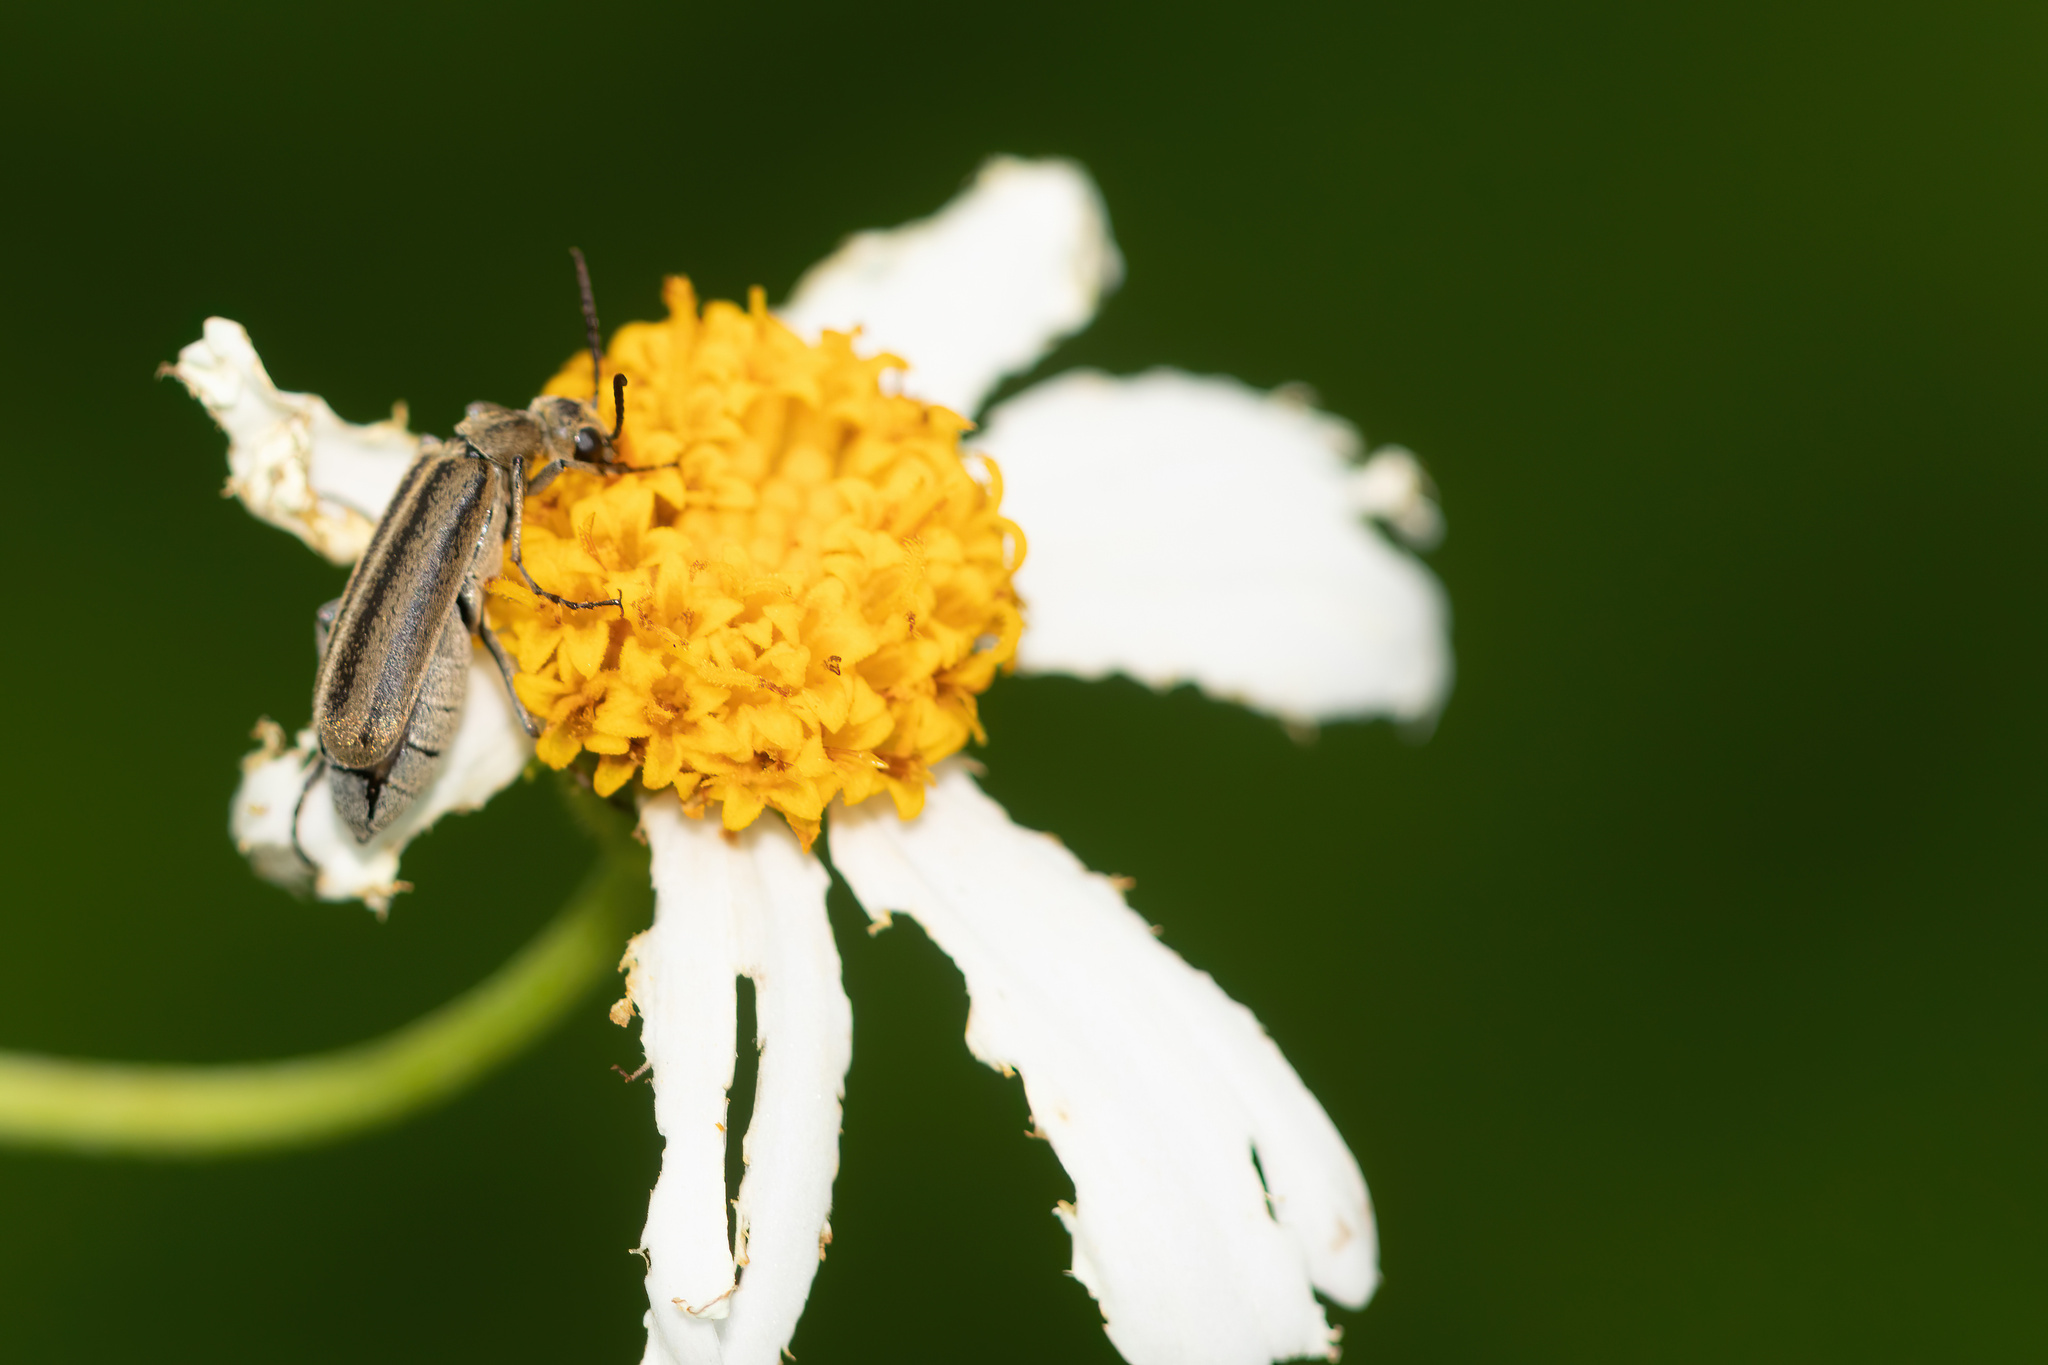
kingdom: Animalia
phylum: Arthropoda
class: Insecta
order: Coleoptera
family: Meloidae
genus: Epicauta
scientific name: Epicauta strigosa
